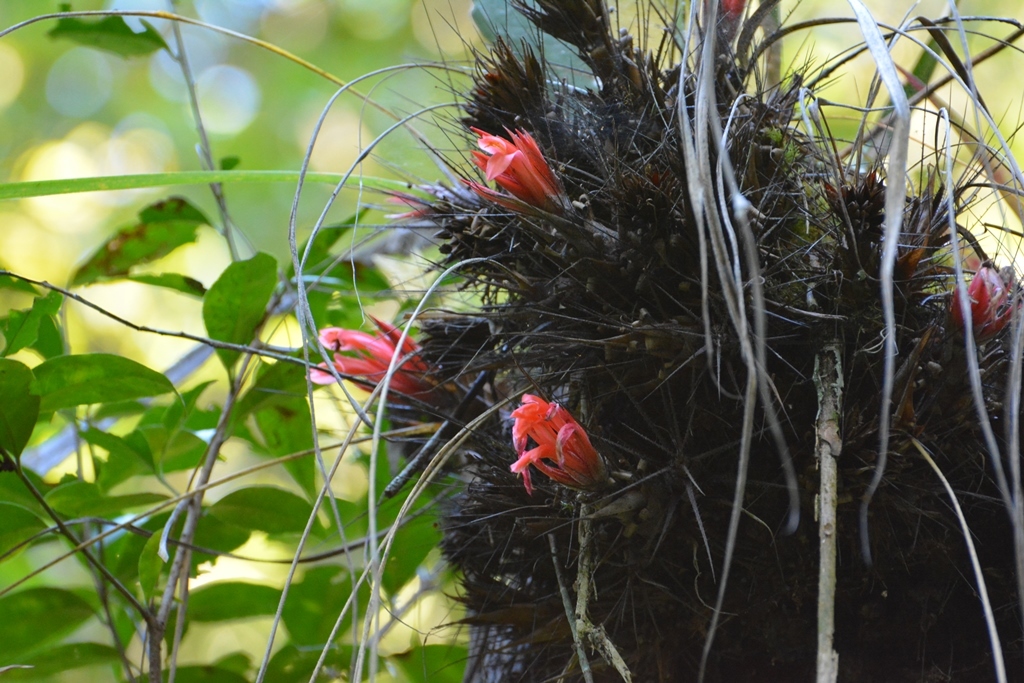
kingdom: Plantae
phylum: Tracheophyta
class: Liliopsida
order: Poales
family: Bromeliaceae
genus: Pitcairnia
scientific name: Pitcairnia heterophylla
